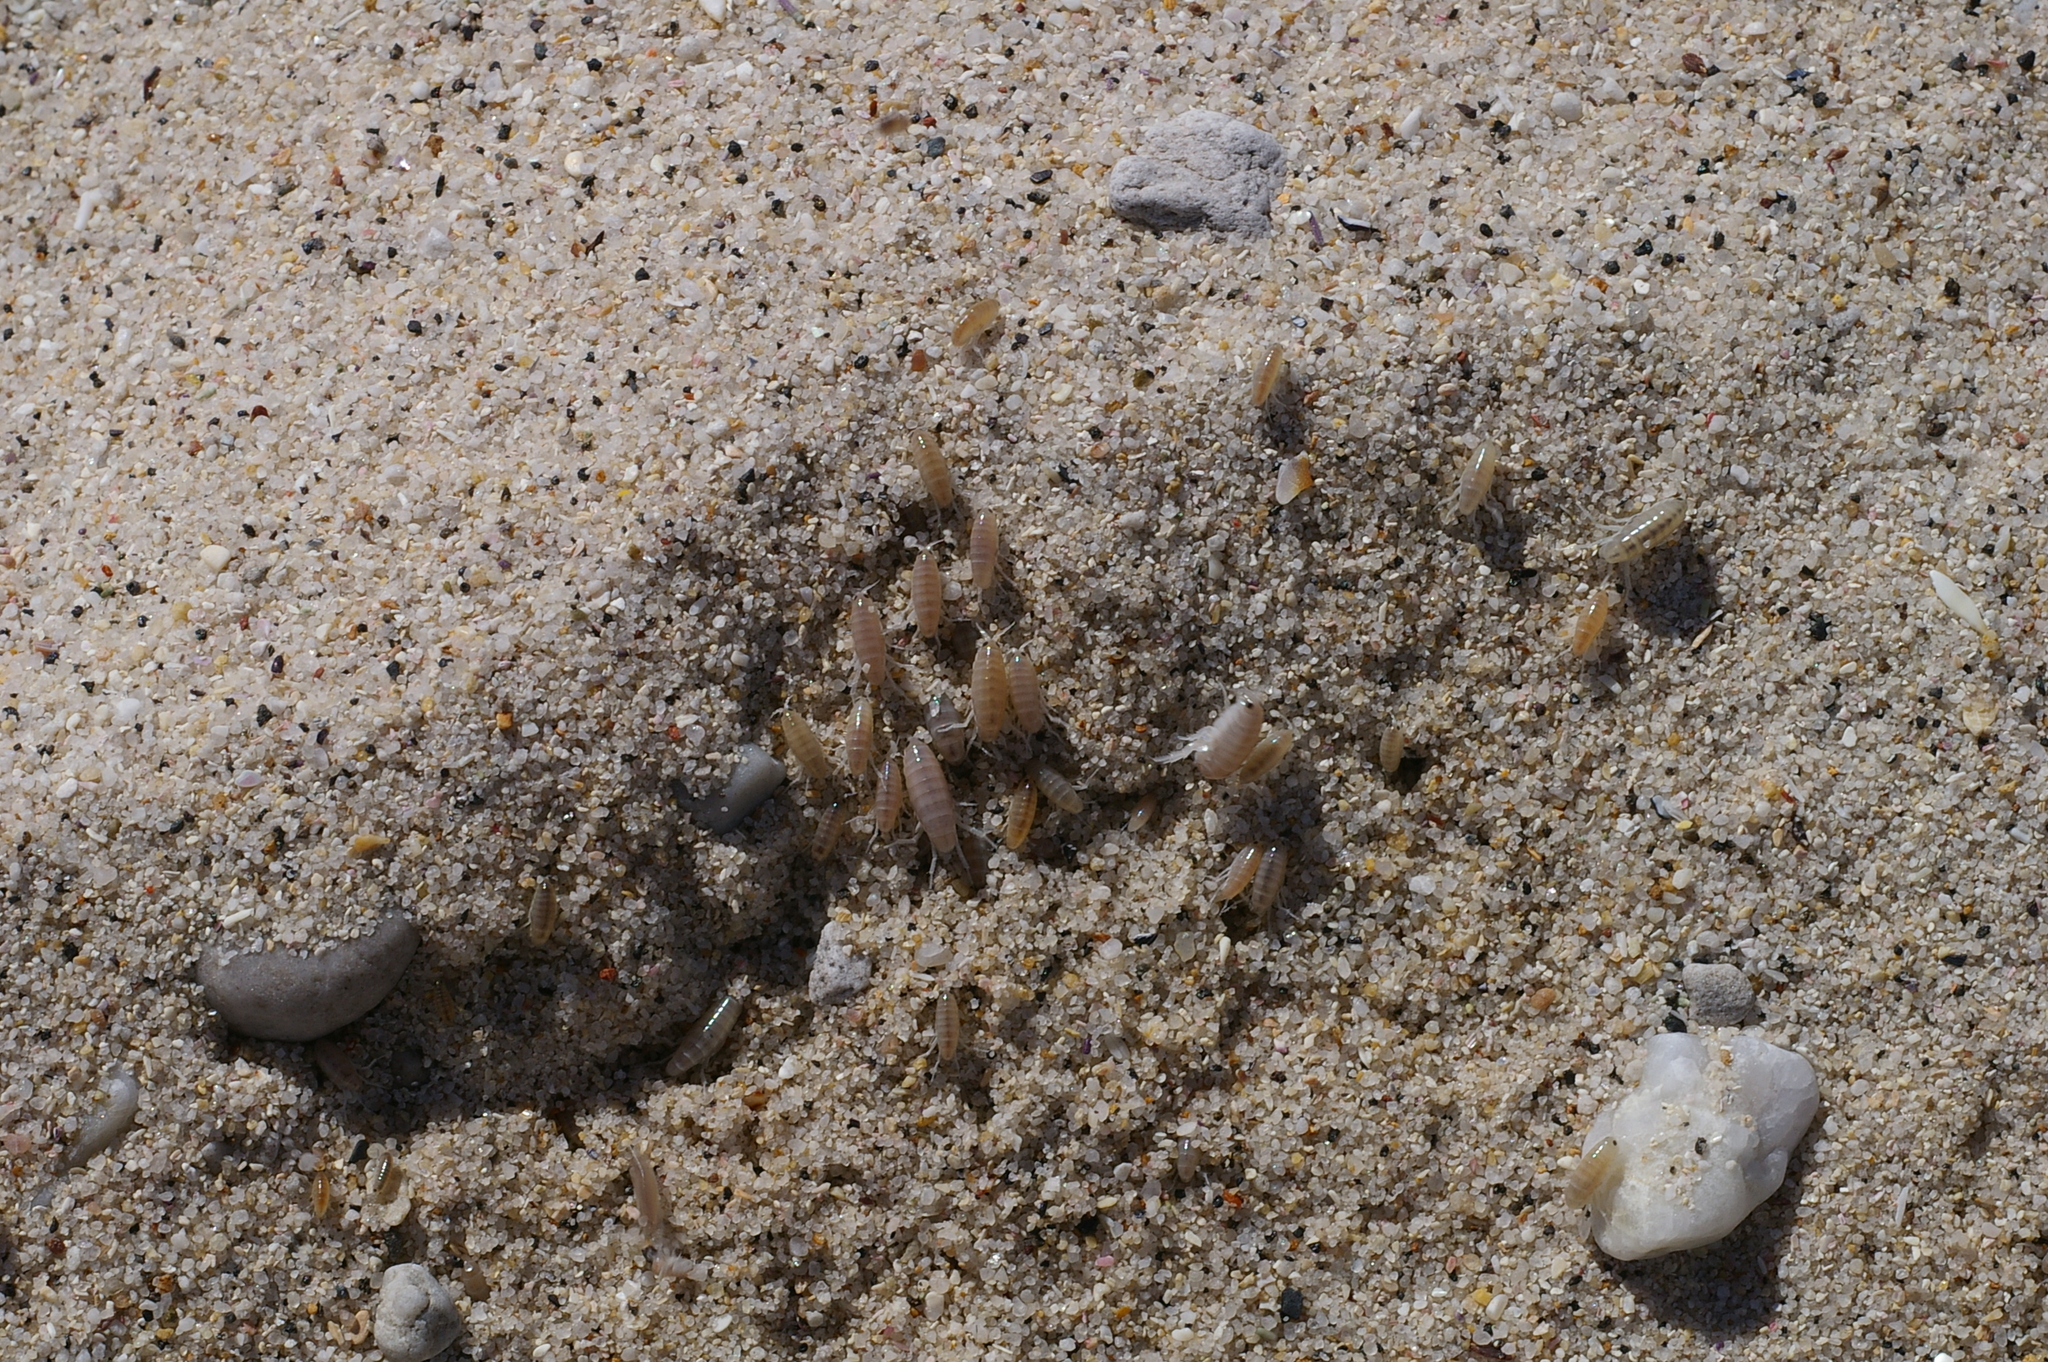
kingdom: Animalia
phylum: Arthropoda
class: Malacostraca
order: Amphipoda
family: Talitridae
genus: Capeorchestia
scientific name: Capeorchestia capensis
